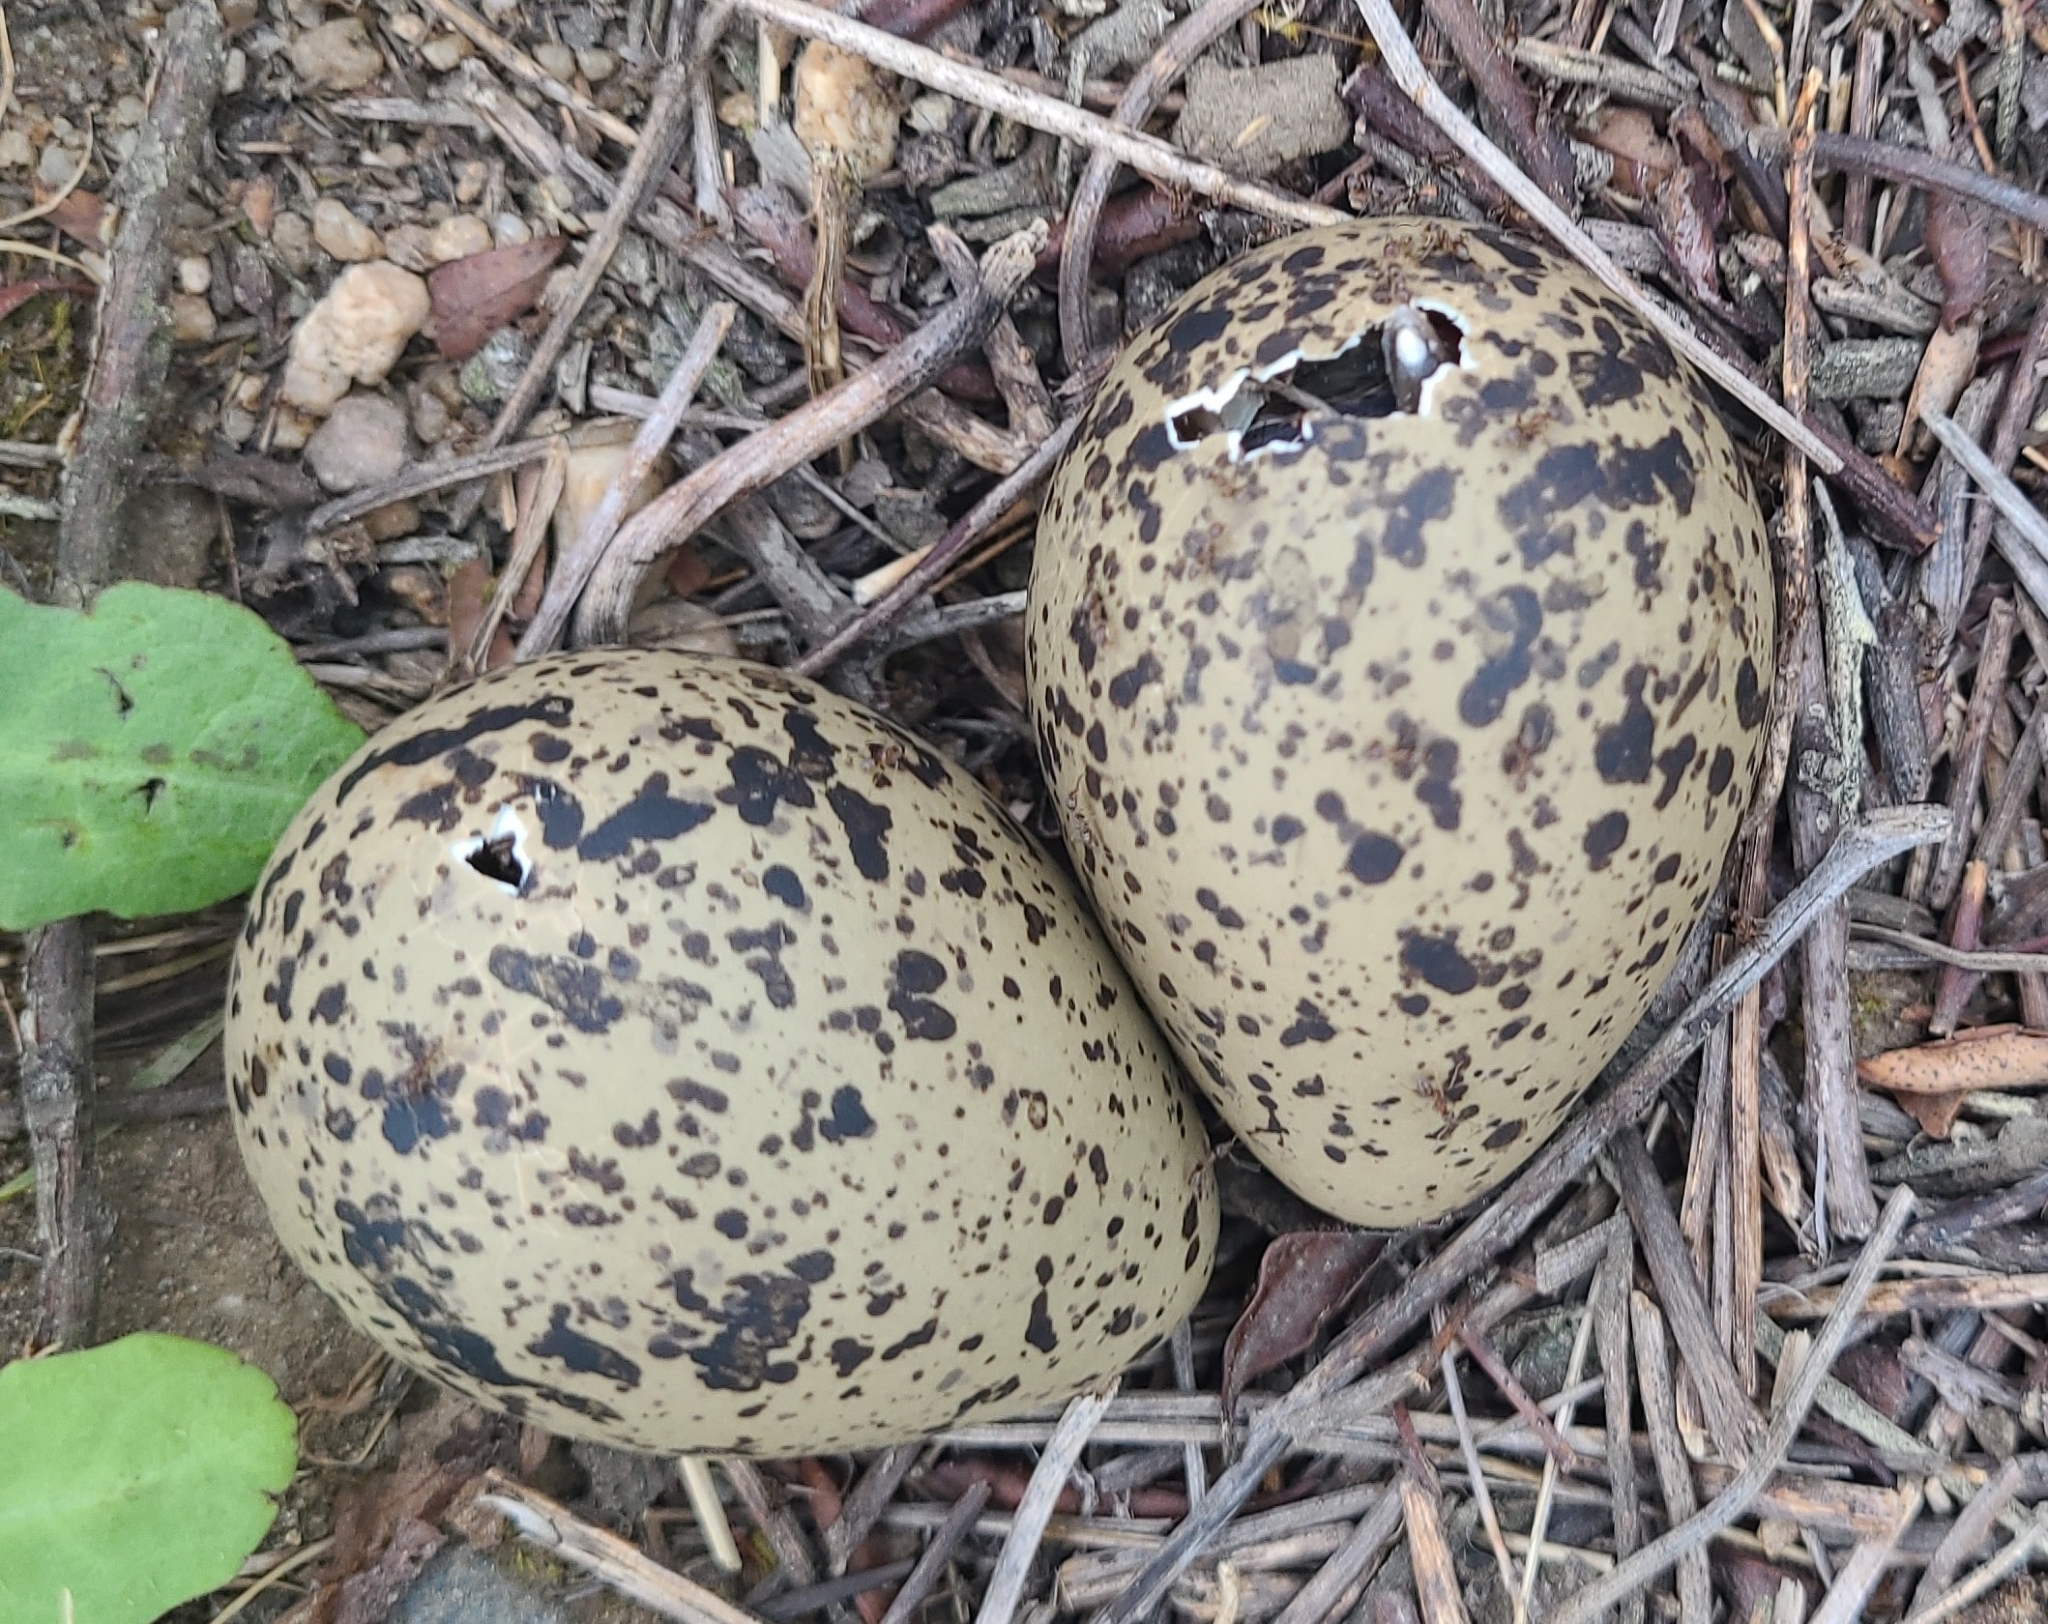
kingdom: Animalia
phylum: Chordata
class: Aves
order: Charadriiformes
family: Charadriidae
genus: Vanellus
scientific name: Vanellus chilensis
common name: Southern lapwing
